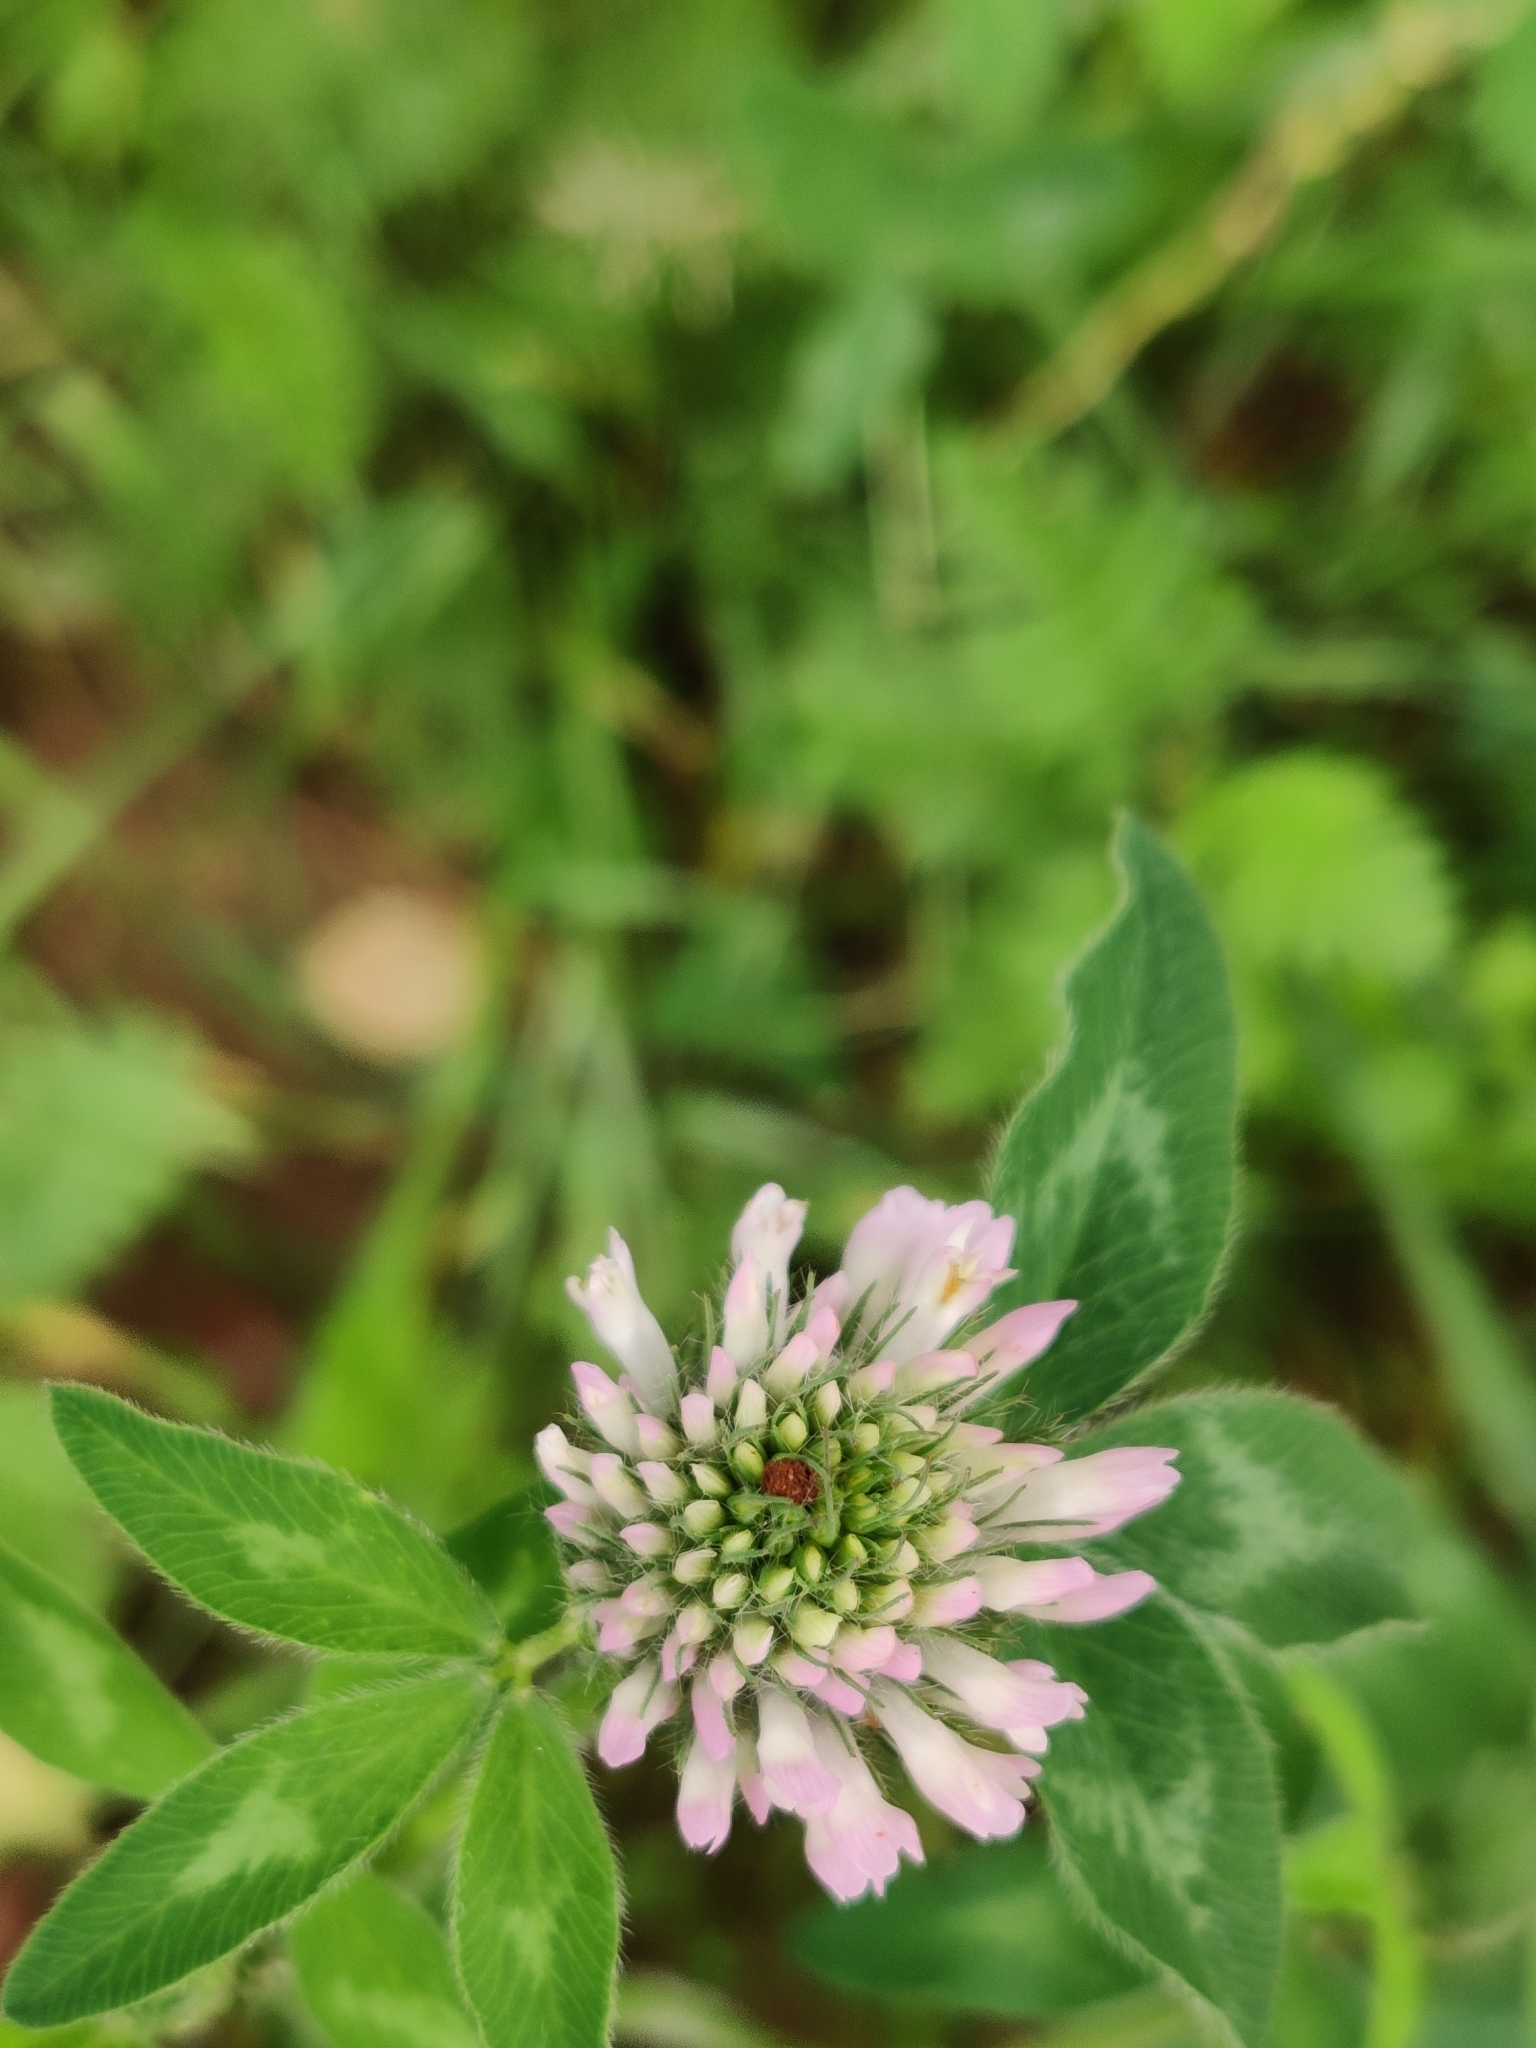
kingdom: Plantae
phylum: Tracheophyta
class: Magnoliopsida
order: Fabales
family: Fabaceae
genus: Trifolium
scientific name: Trifolium pratense
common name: Red clover
